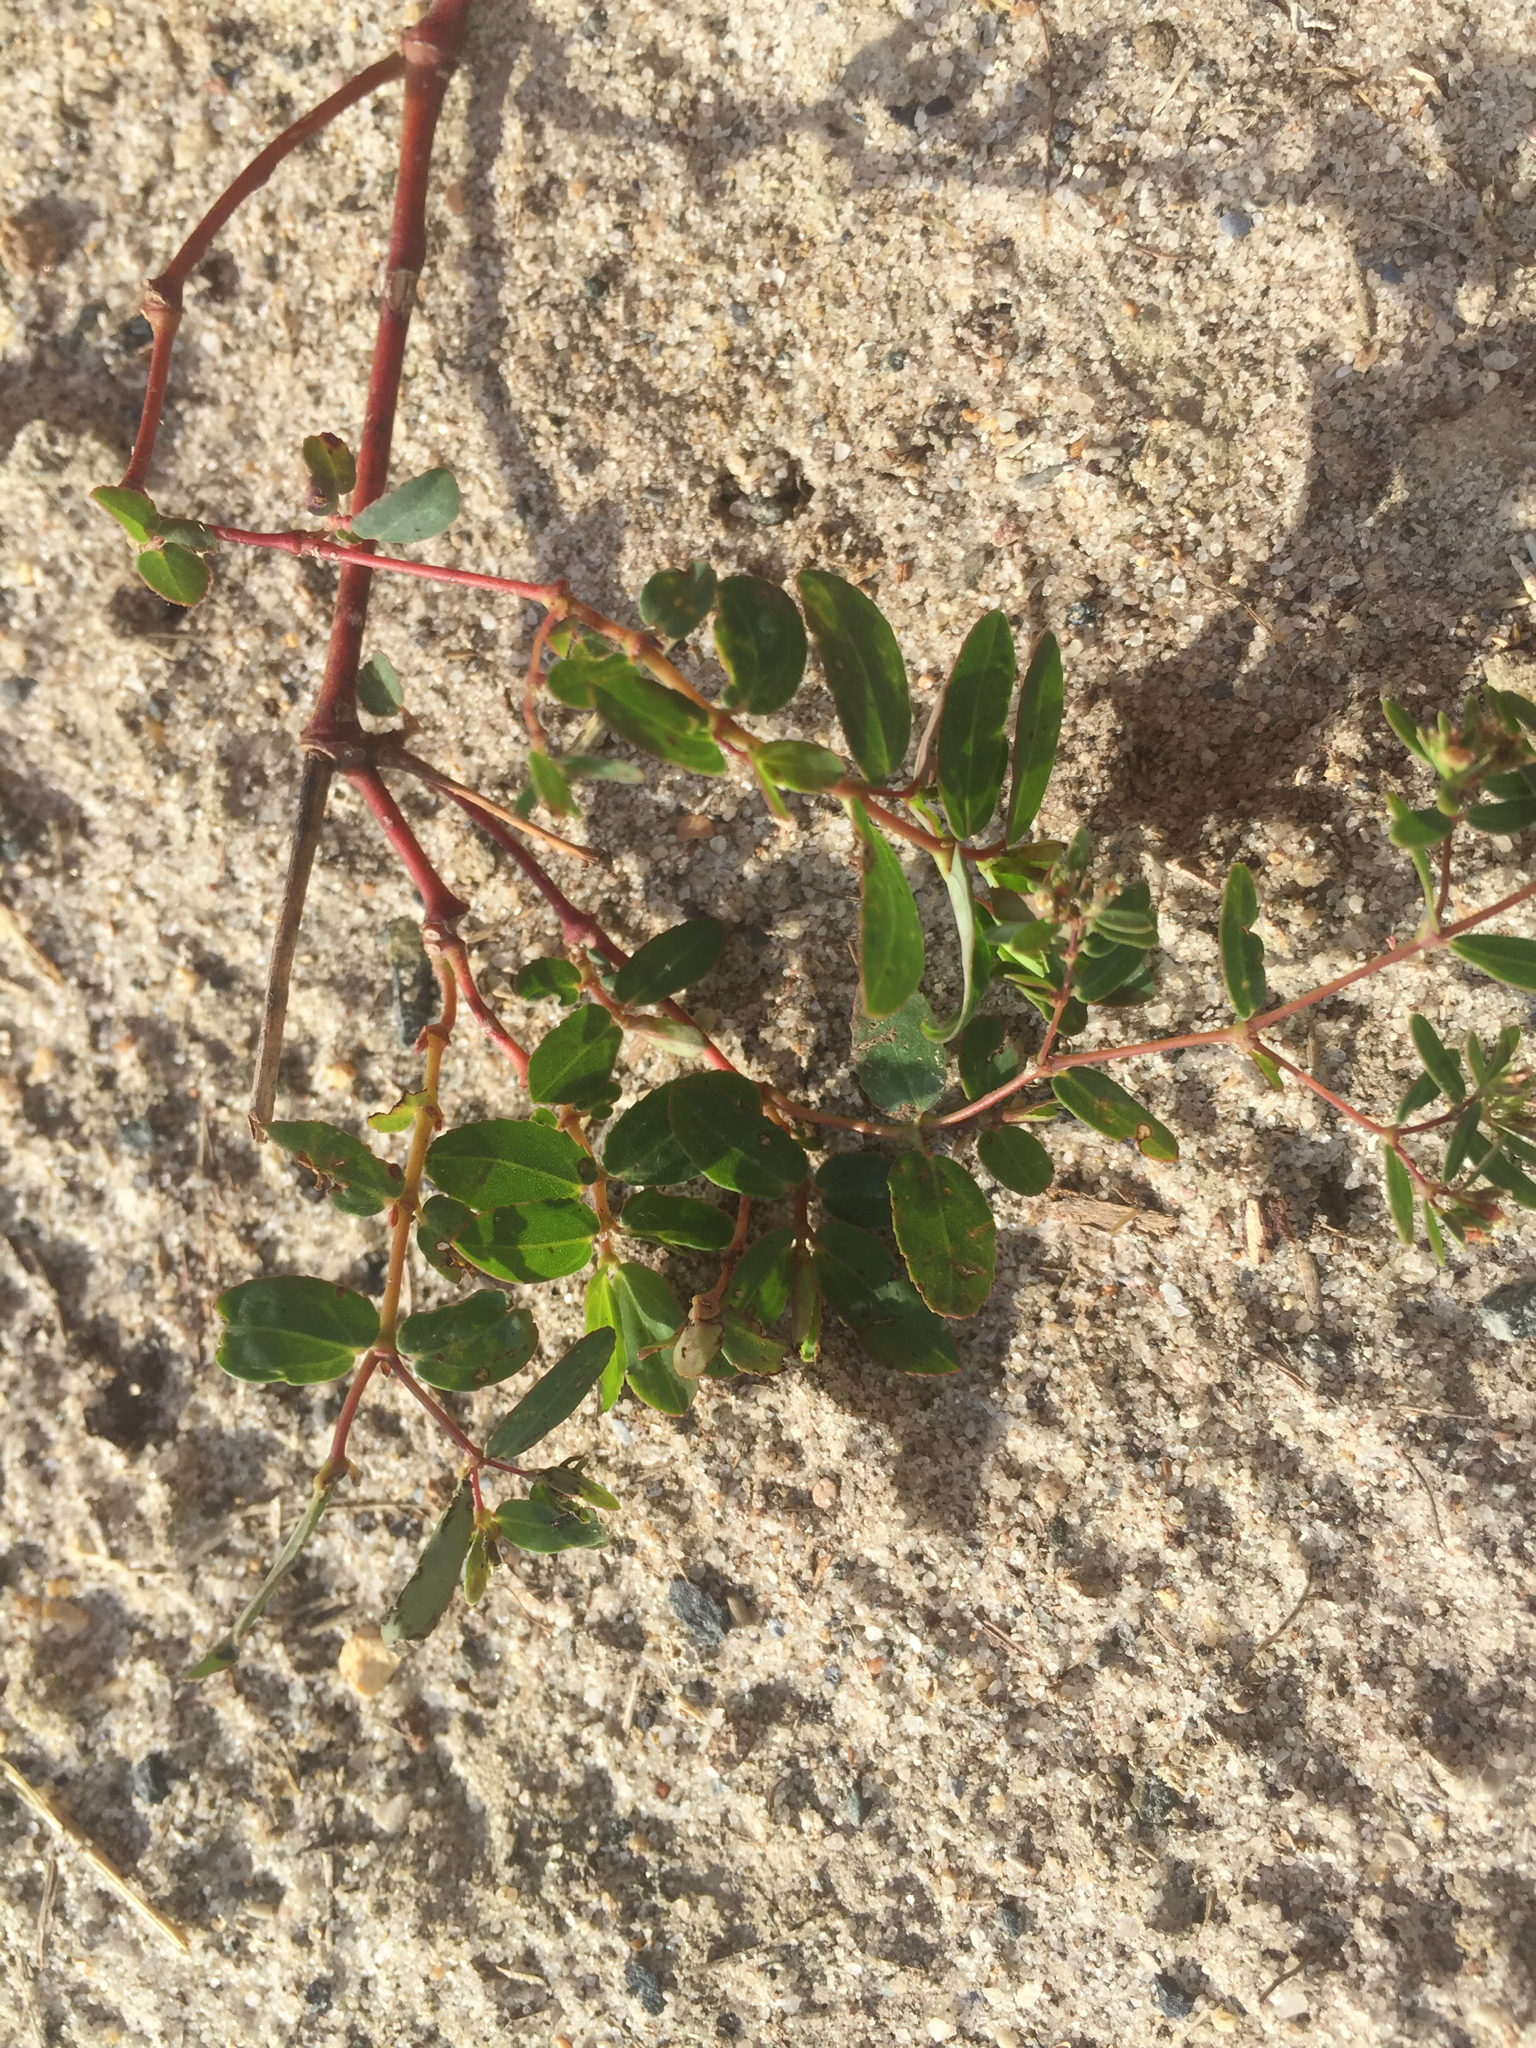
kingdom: Plantae
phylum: Tracheophyta
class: Magnoliopsida
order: Malpighiales
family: Euphorbiaceae
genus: Euphorbia
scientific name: Euphorbia hyssopifolia
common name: Hyssopleaf sandmat
